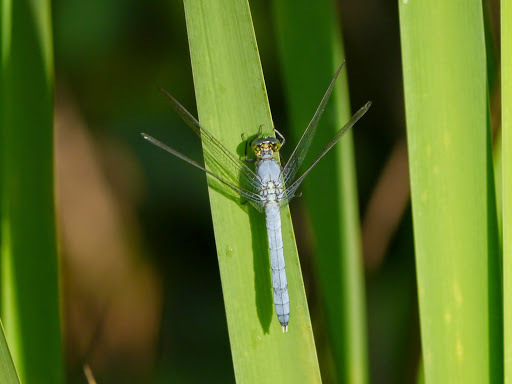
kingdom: Animalia
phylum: Arthropoda
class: Insecta
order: Odonata
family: Libellulidae
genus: Erythemis
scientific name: Erythemis simplicicollis
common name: Eastern pondhawk
